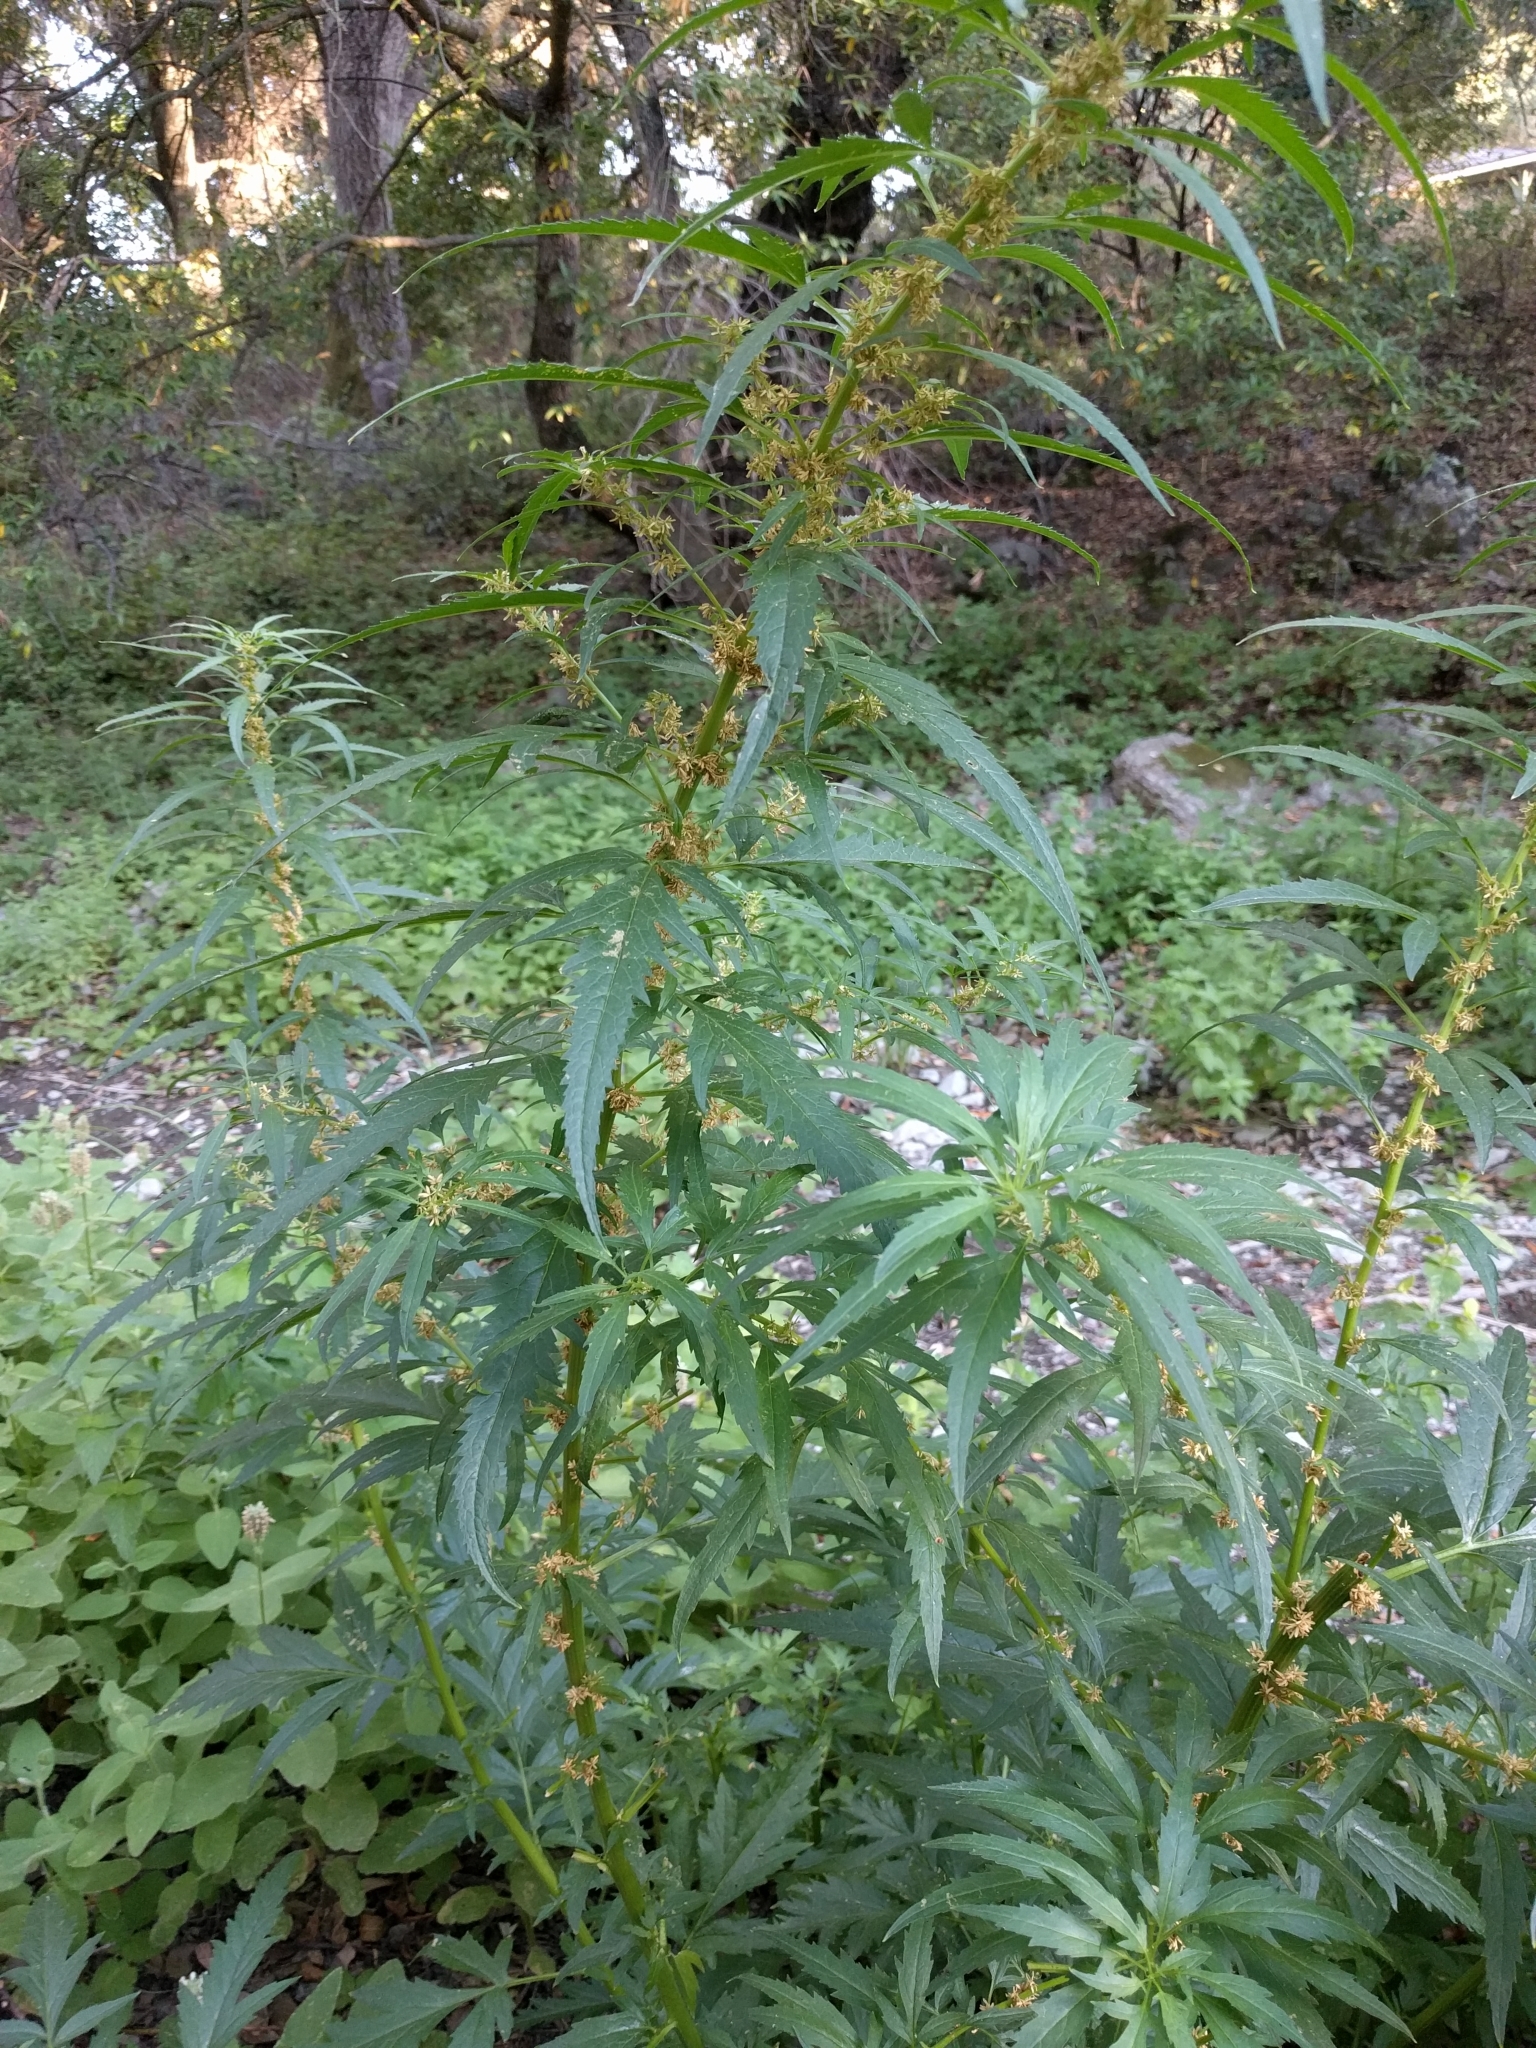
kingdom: Plantae
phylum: Tracheophyta
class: Magnoliopsida
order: Cucurbitales
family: Datiscaceae
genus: Datisca
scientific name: Datisca glomerata
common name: Durango-root
